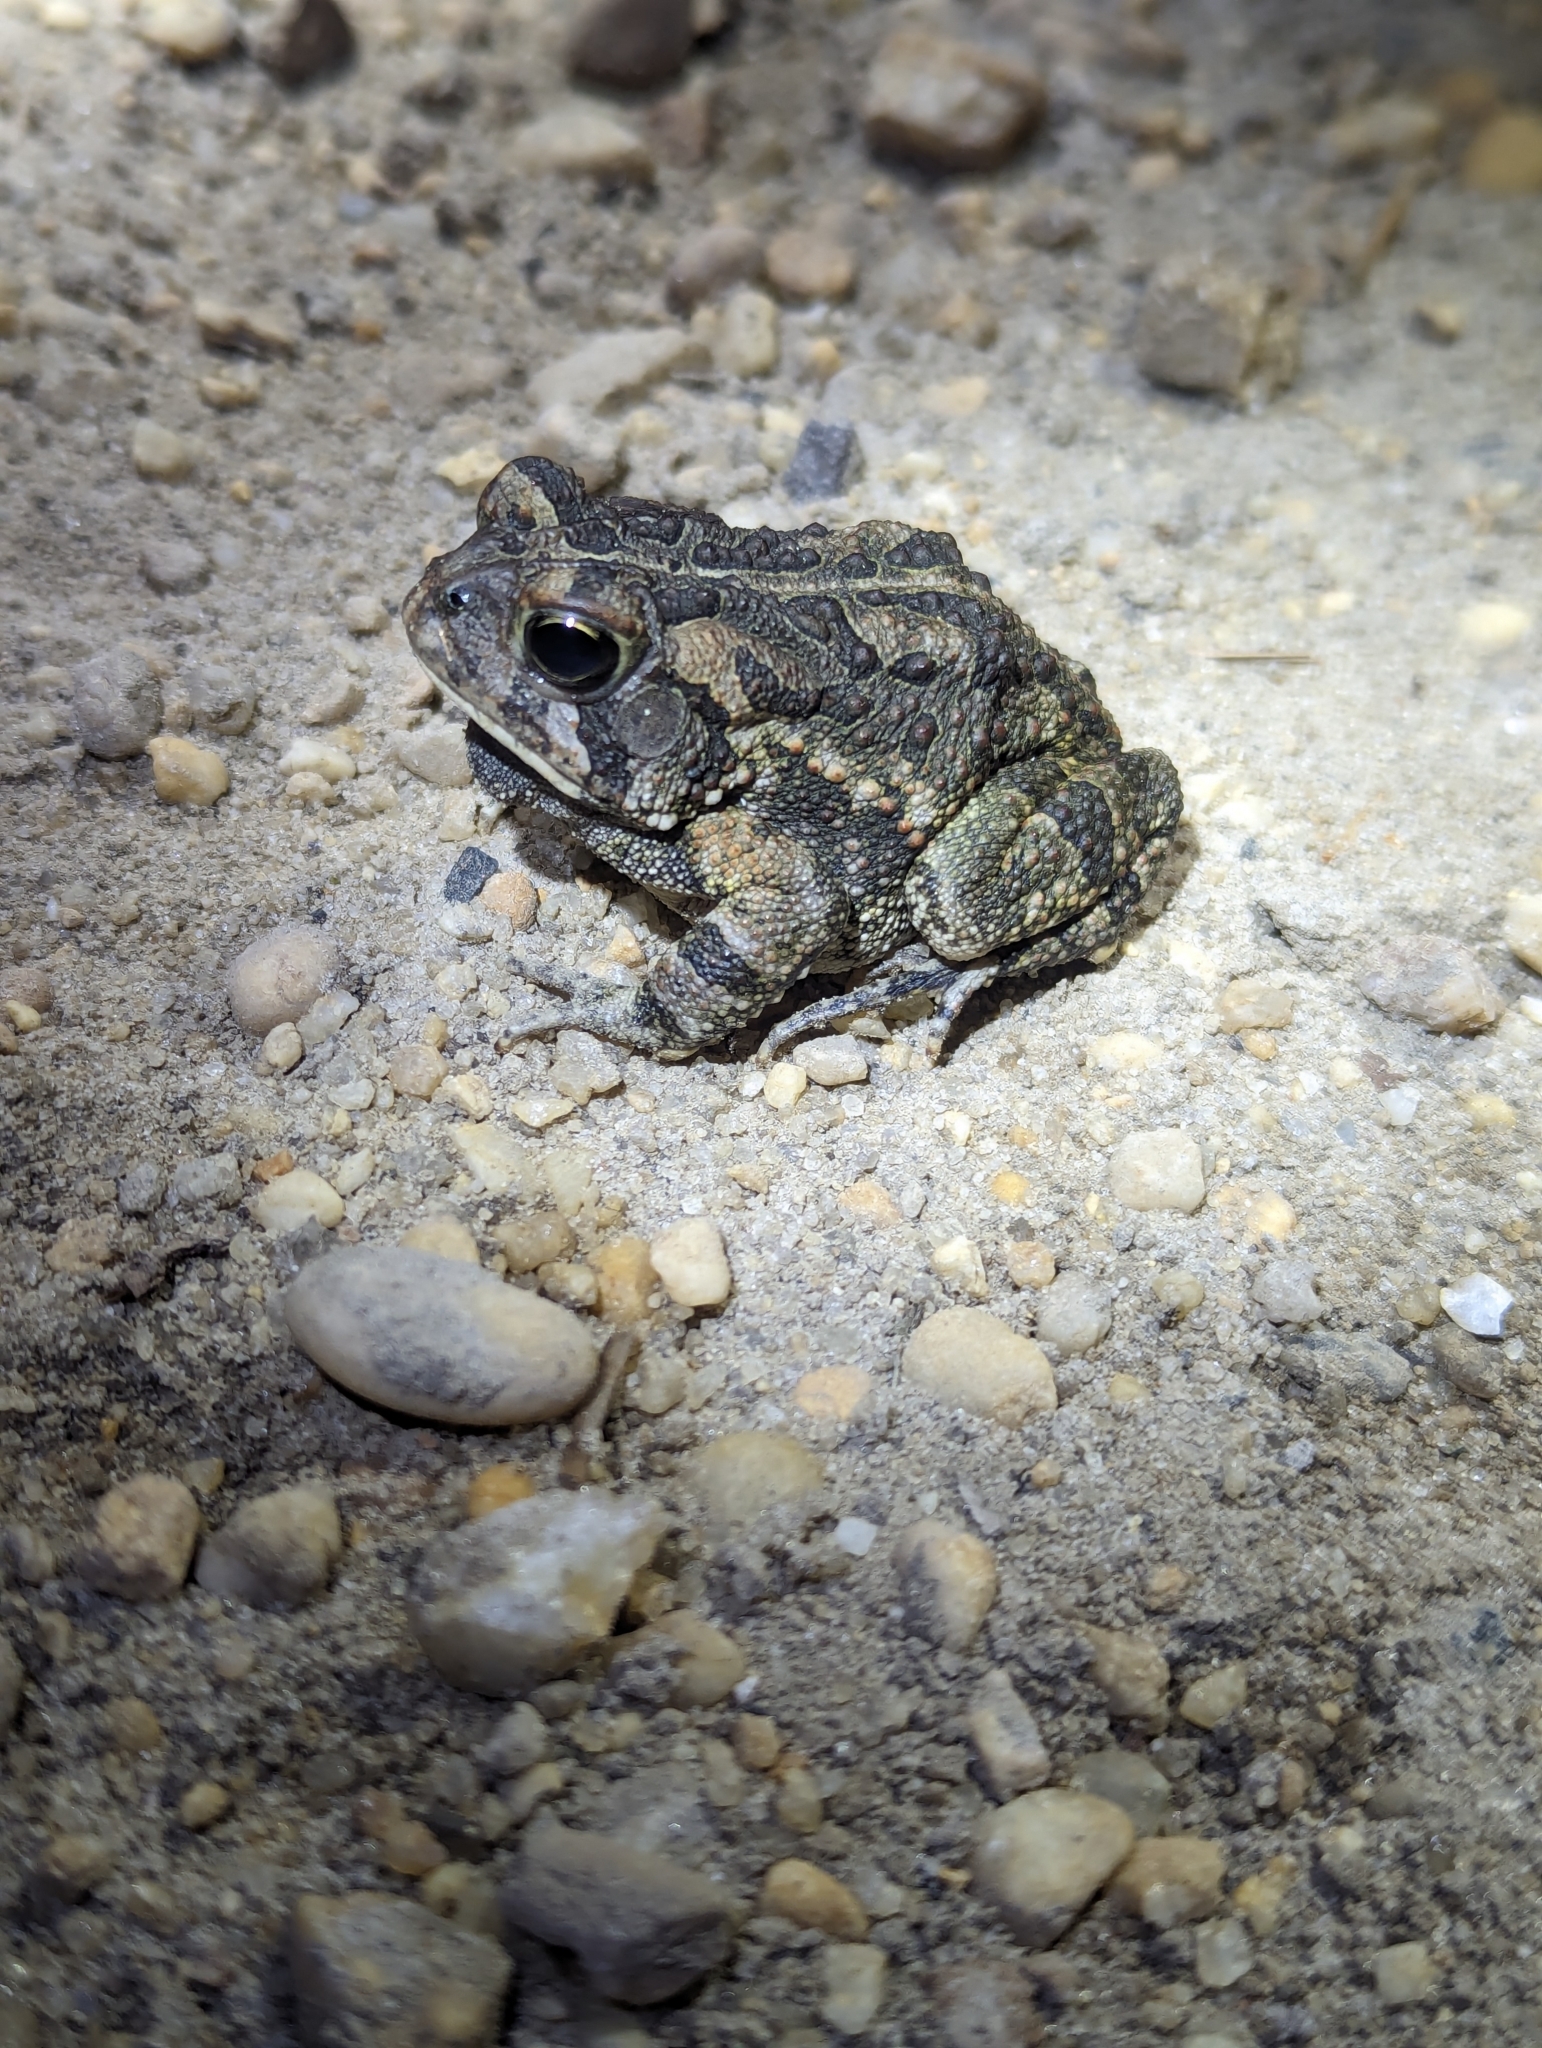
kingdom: Animalia
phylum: Chordata
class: Amphibia
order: Anura
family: Bufonidae
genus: Anaxyrus
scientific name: Anaxyrus fowleri
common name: Fowler's toad
